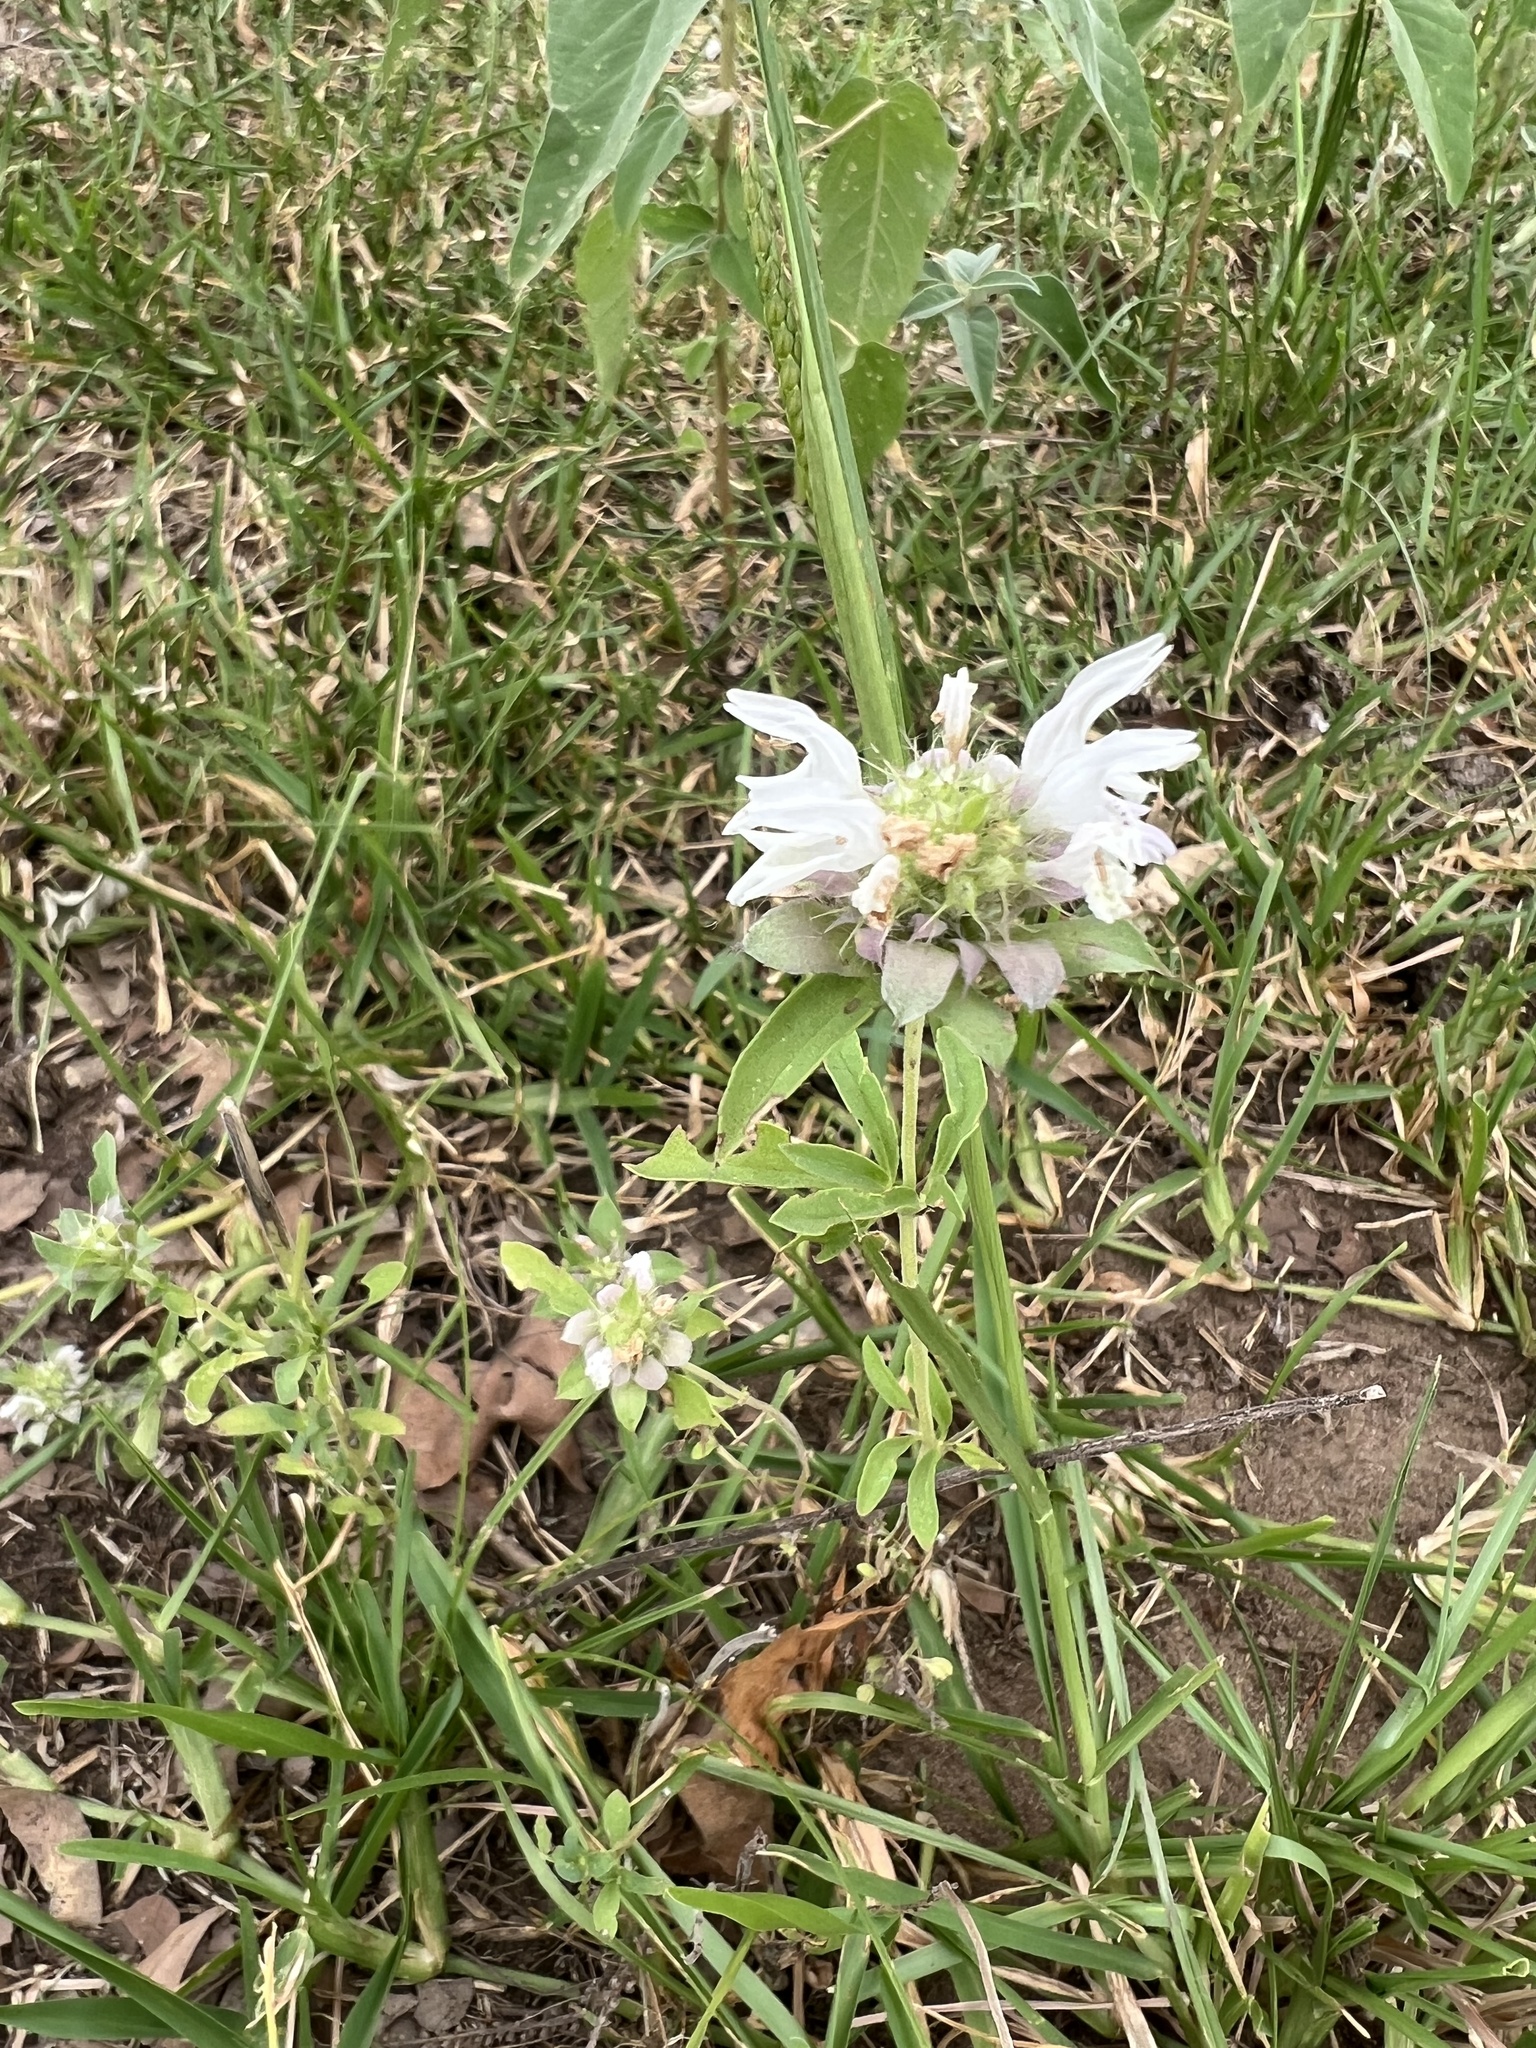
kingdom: Plantae
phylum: Tracheophyta
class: Magnoliopsida
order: Lamiales
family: Lamiaceae
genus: Monarda
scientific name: Monarda citriodora
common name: Lemon beebalm
